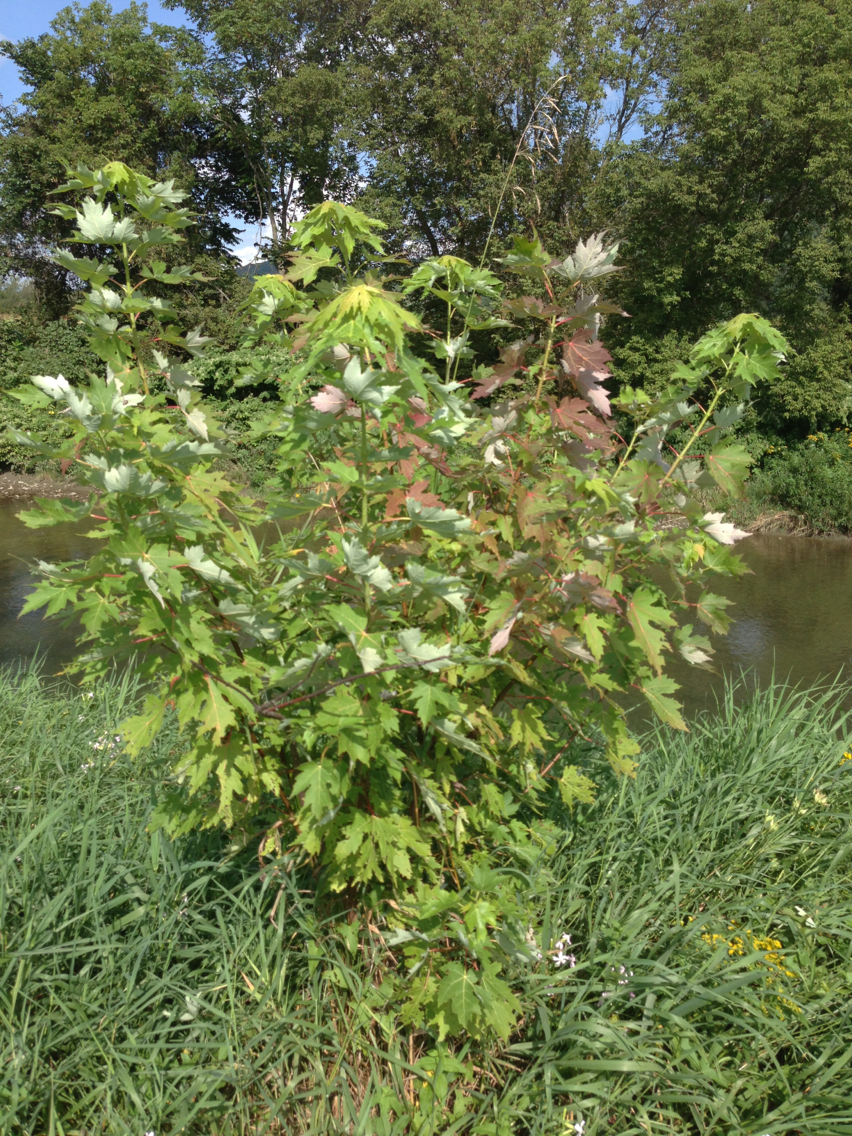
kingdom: Plantae
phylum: Tracheophyta
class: Magnoliopsida
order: Sapindales
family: Sapindaceae
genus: Acer
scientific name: Acer saccharinum
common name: Silver maple
